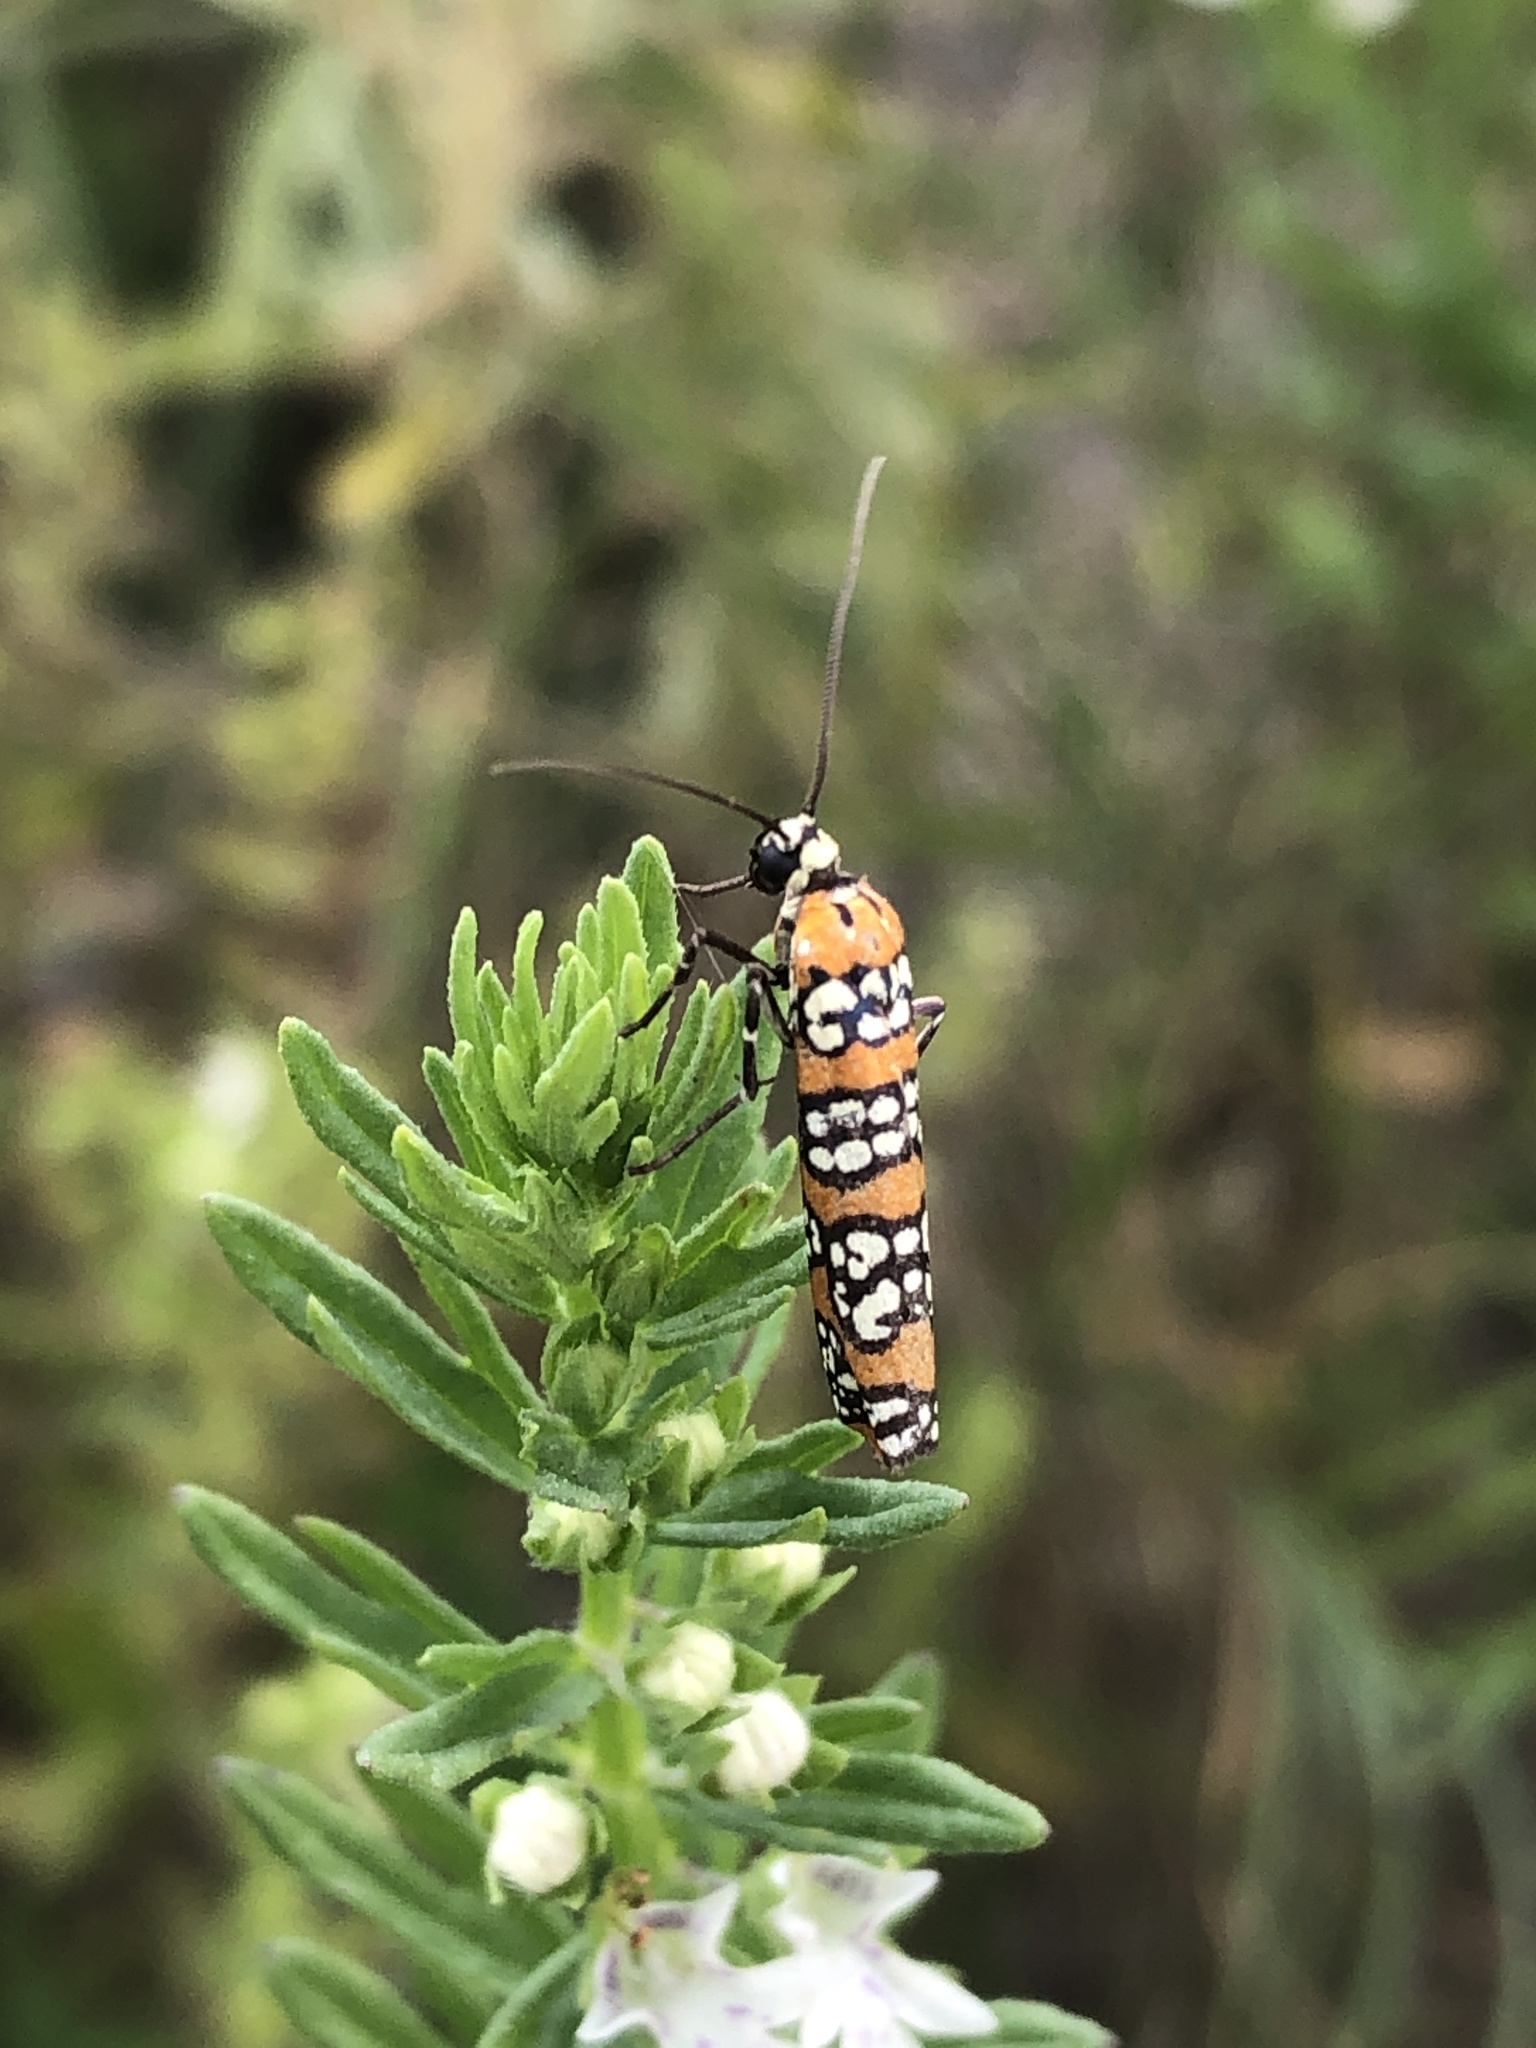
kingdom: Animalia
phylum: Arthropoda
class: Insecta
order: Lepidoptera
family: Attevidae
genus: Atteva
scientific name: Atteva punctella
